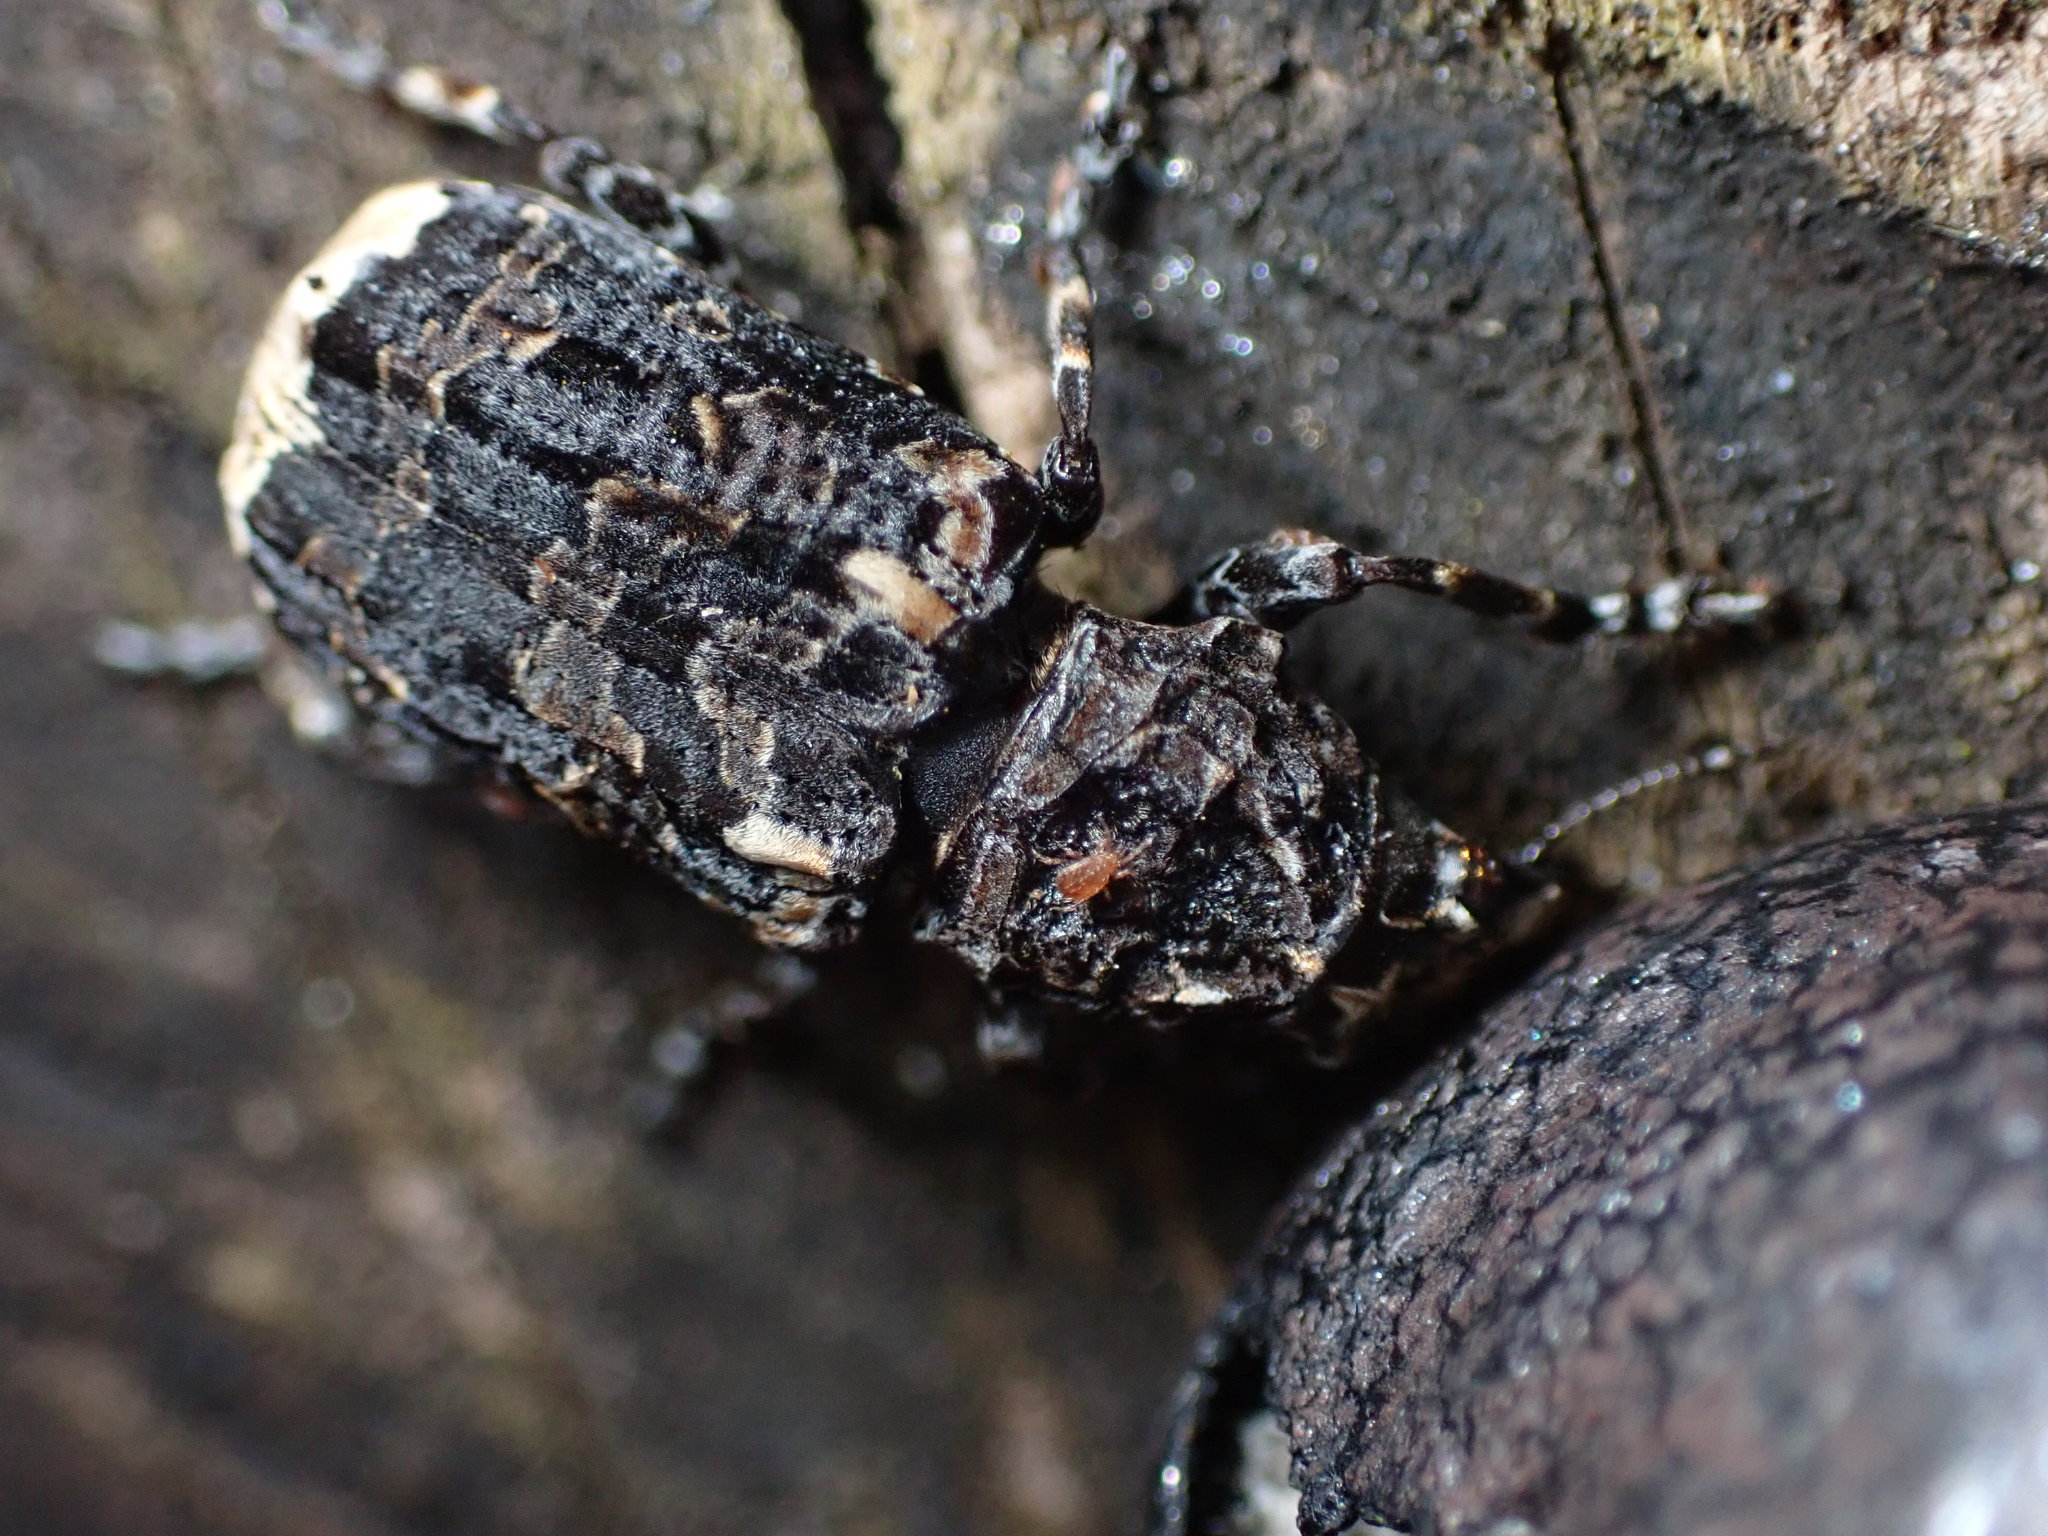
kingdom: Animalia
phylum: Arthropoda
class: Insecta
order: Coleoptera
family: Anthribidae
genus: Platyrhinus
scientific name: Platyrhinus resinosus
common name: Cramp-ball fungus weevil
